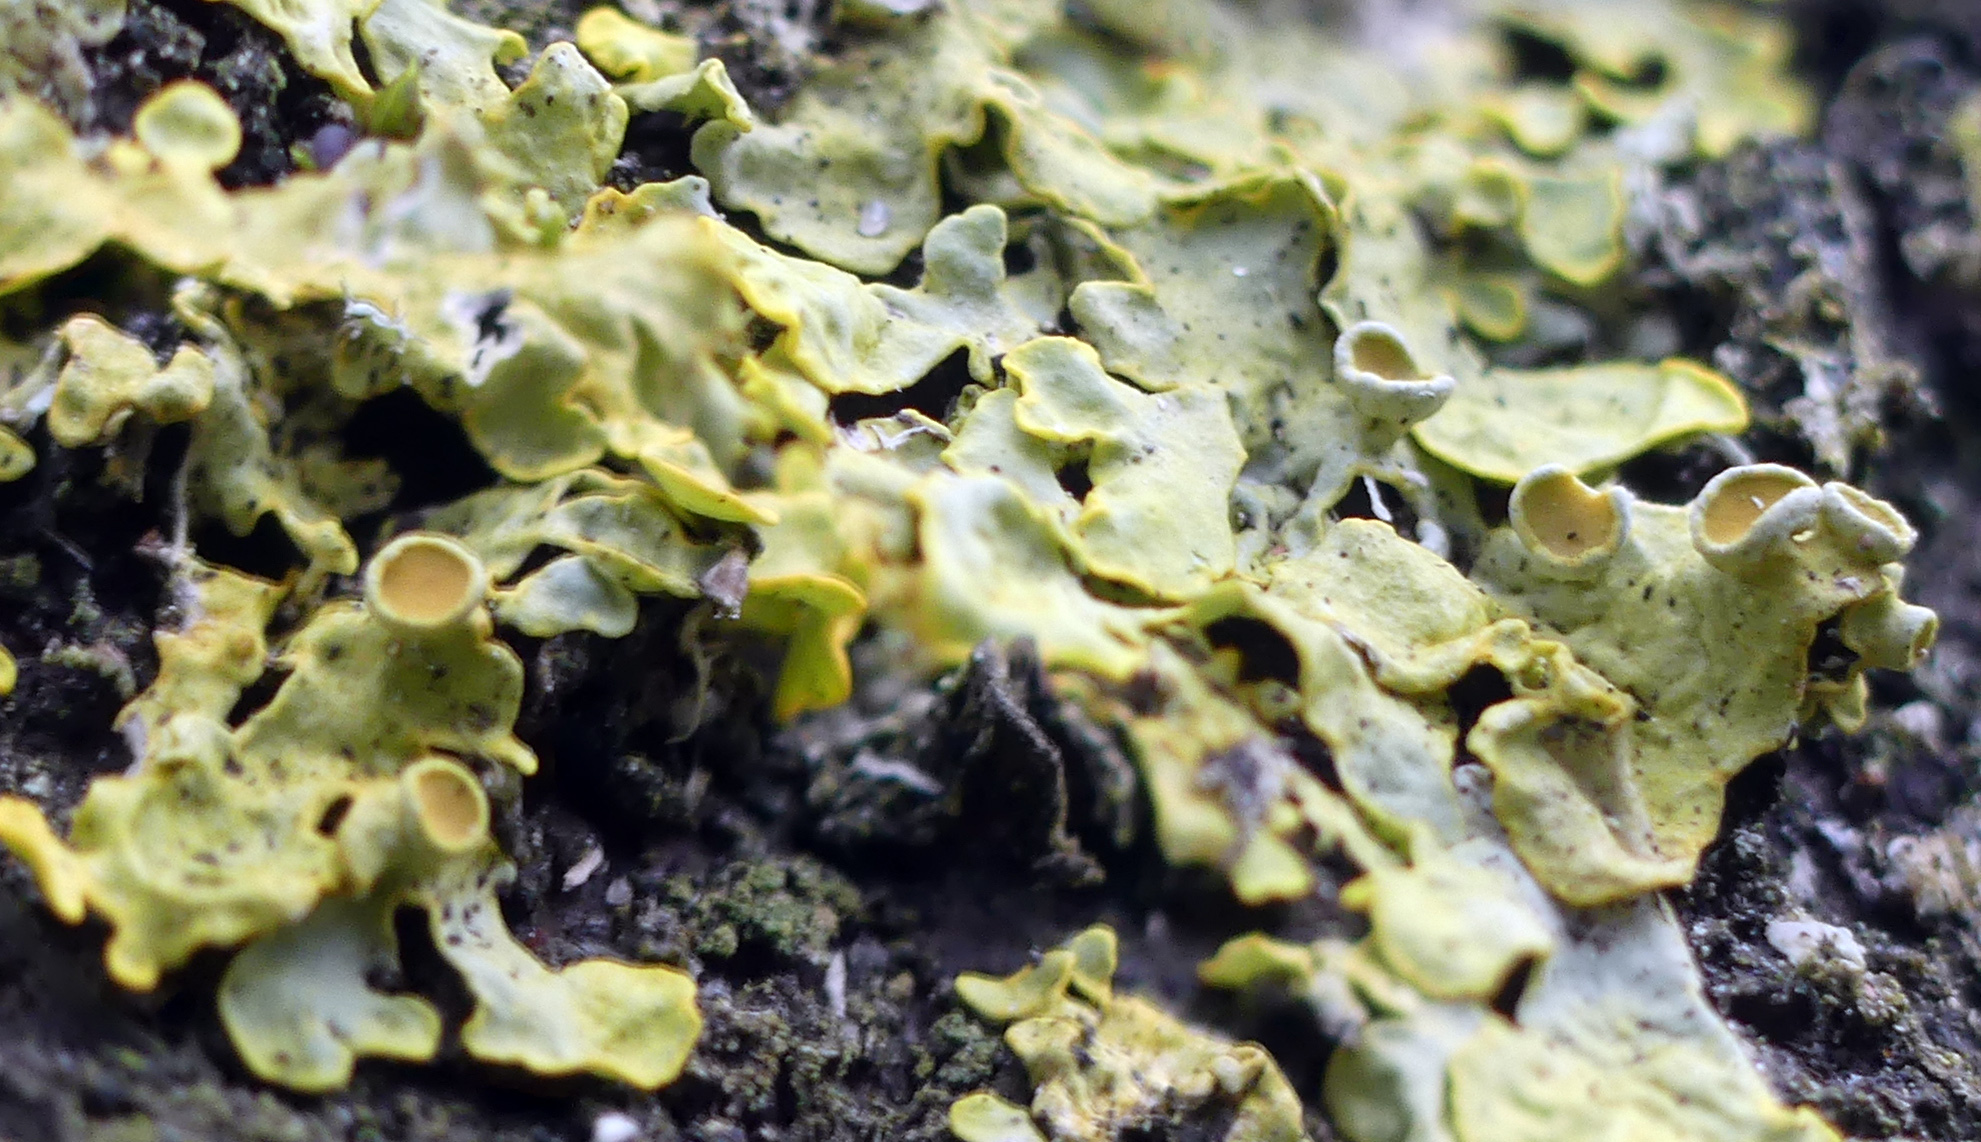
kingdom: Fungi
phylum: Ascomycota
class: Lecanoromycetes
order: Teloschistales
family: Teloschistaceae
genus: Xanthoria
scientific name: Xanthoria parietina
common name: Common orange lichen
